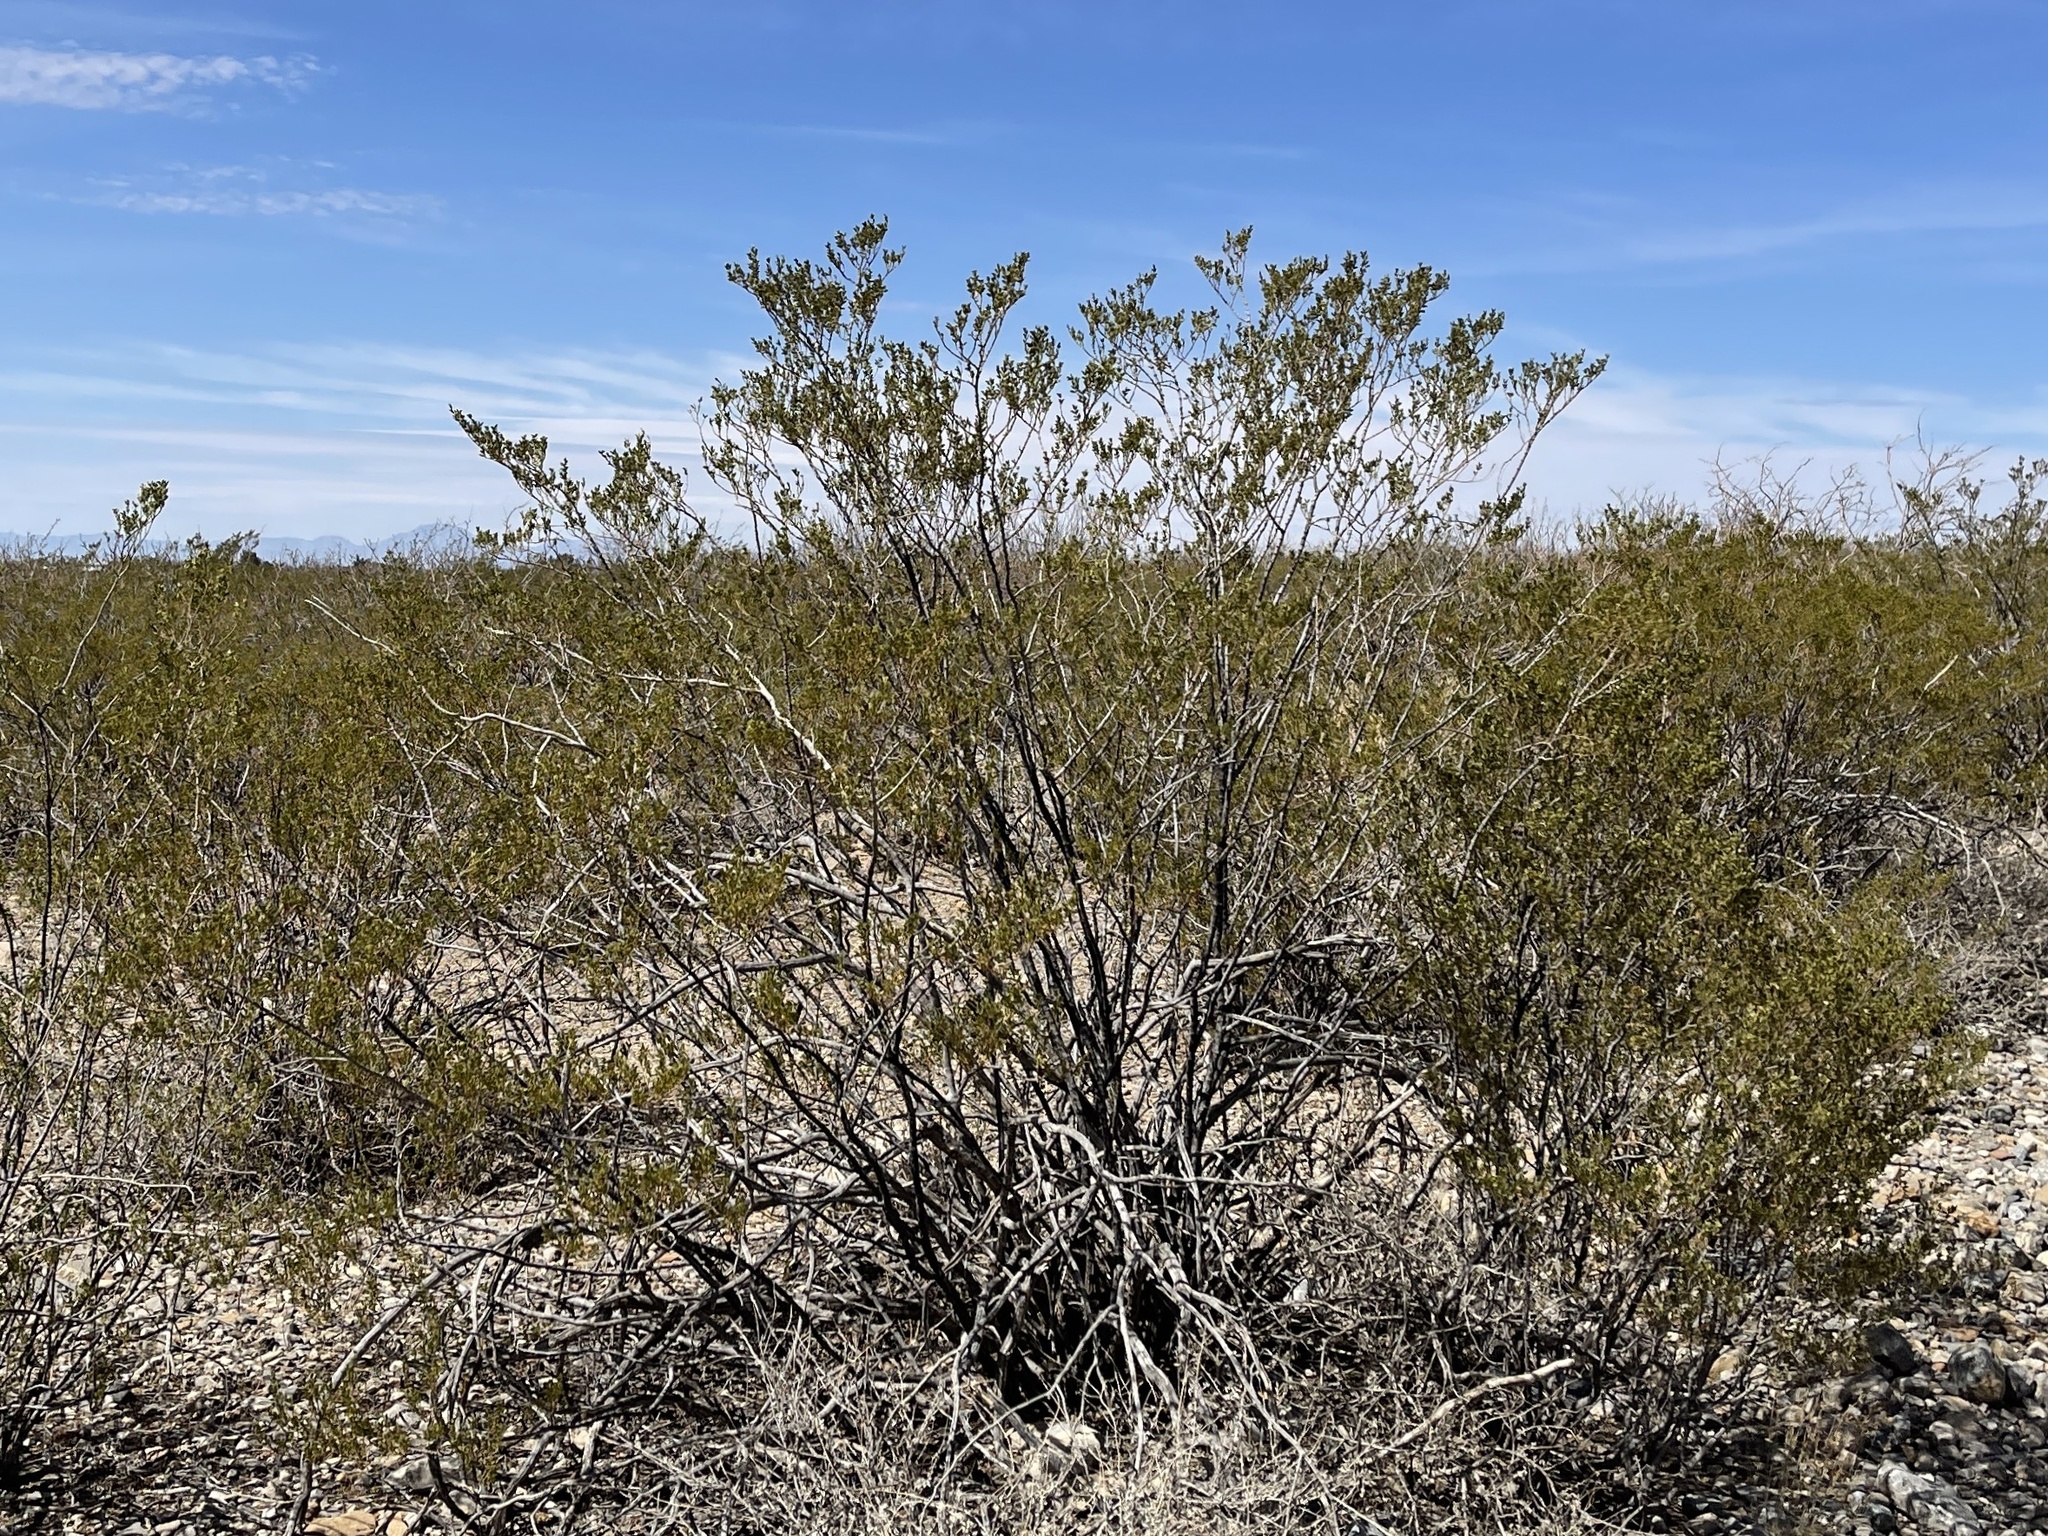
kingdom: Plantae
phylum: Tracheophyta
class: Magnoliopsida
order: Zygophyllales
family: Zygophyllaceae
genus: Larrea
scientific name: Larrea tridentata
